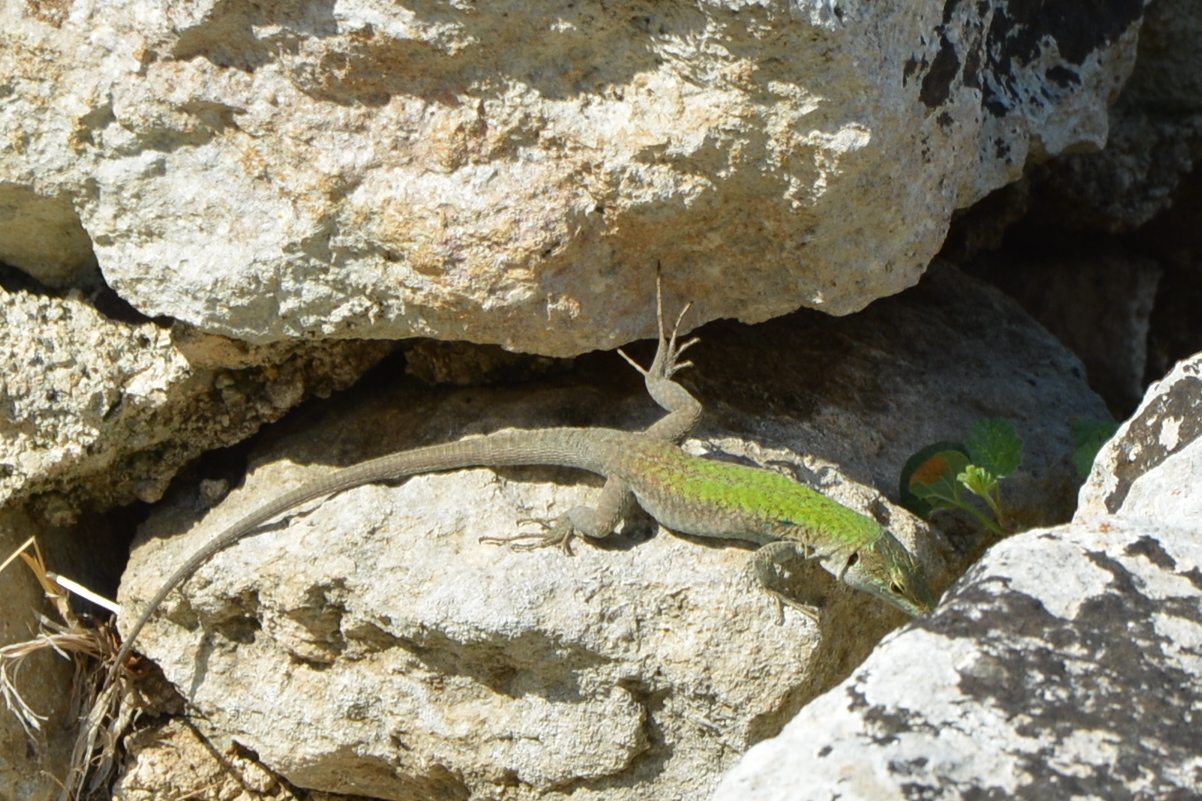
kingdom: Animalia
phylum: Chordata
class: Squamata
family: Lacertidae
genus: Podarcis
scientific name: Podarcis siculus
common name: Italian wall lizard
